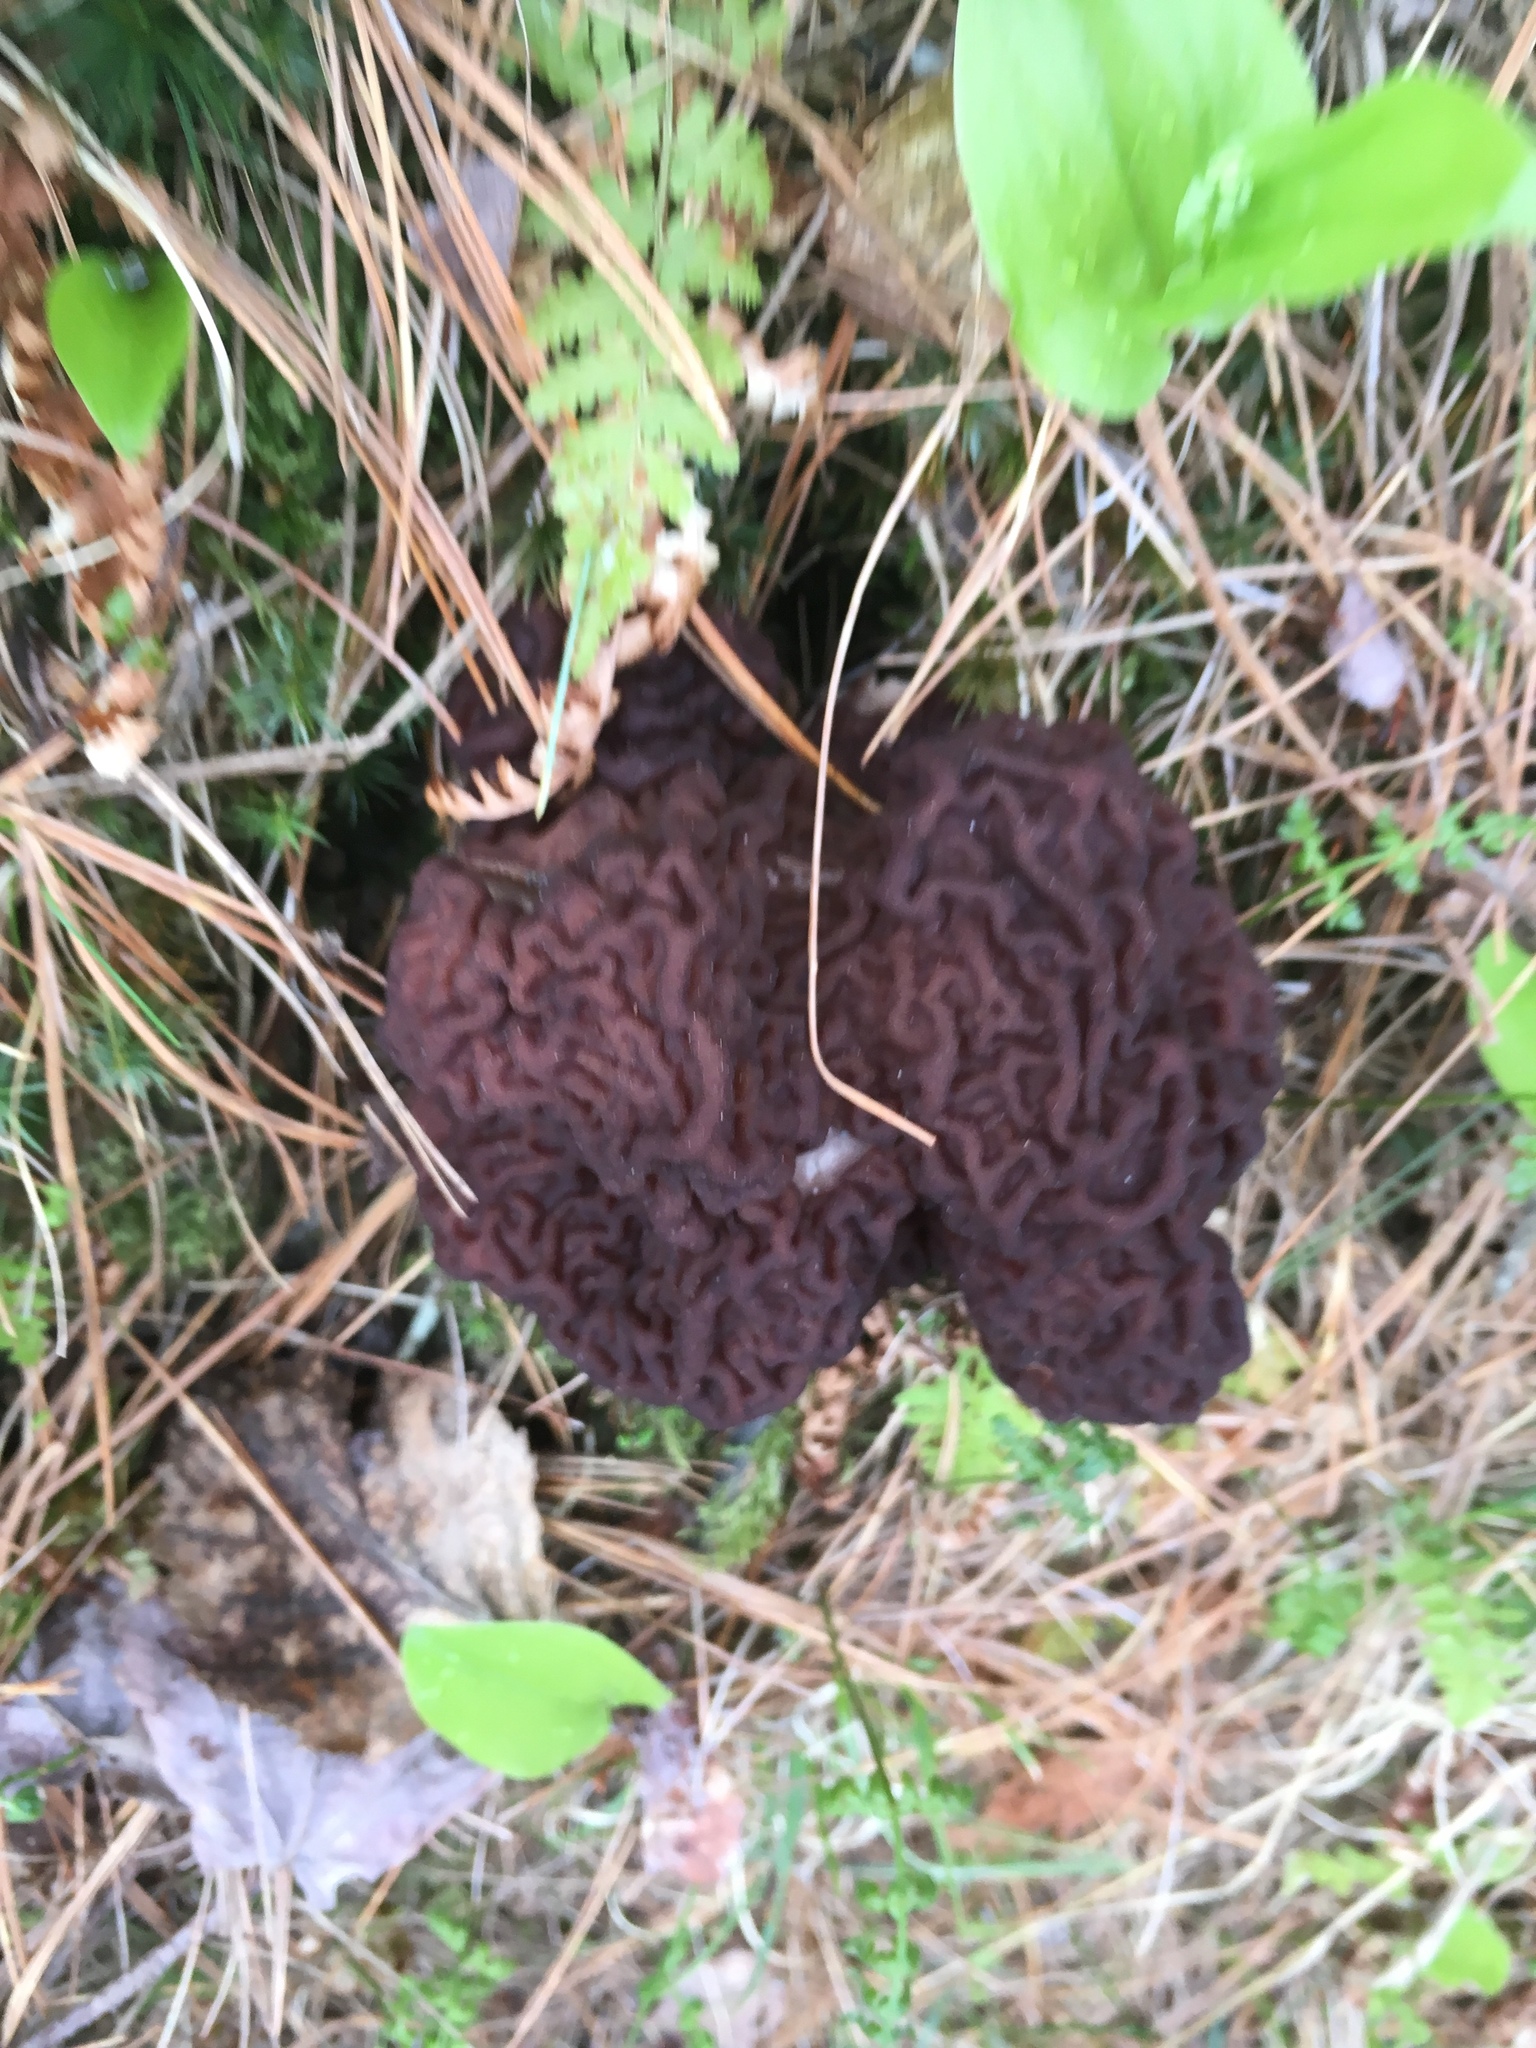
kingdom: Fungi
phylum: Ascomycota
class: Pezizomycetes
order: Pezizales
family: Discinaceae
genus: Gyromitra
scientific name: Gyromitra esculenta
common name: False morel
